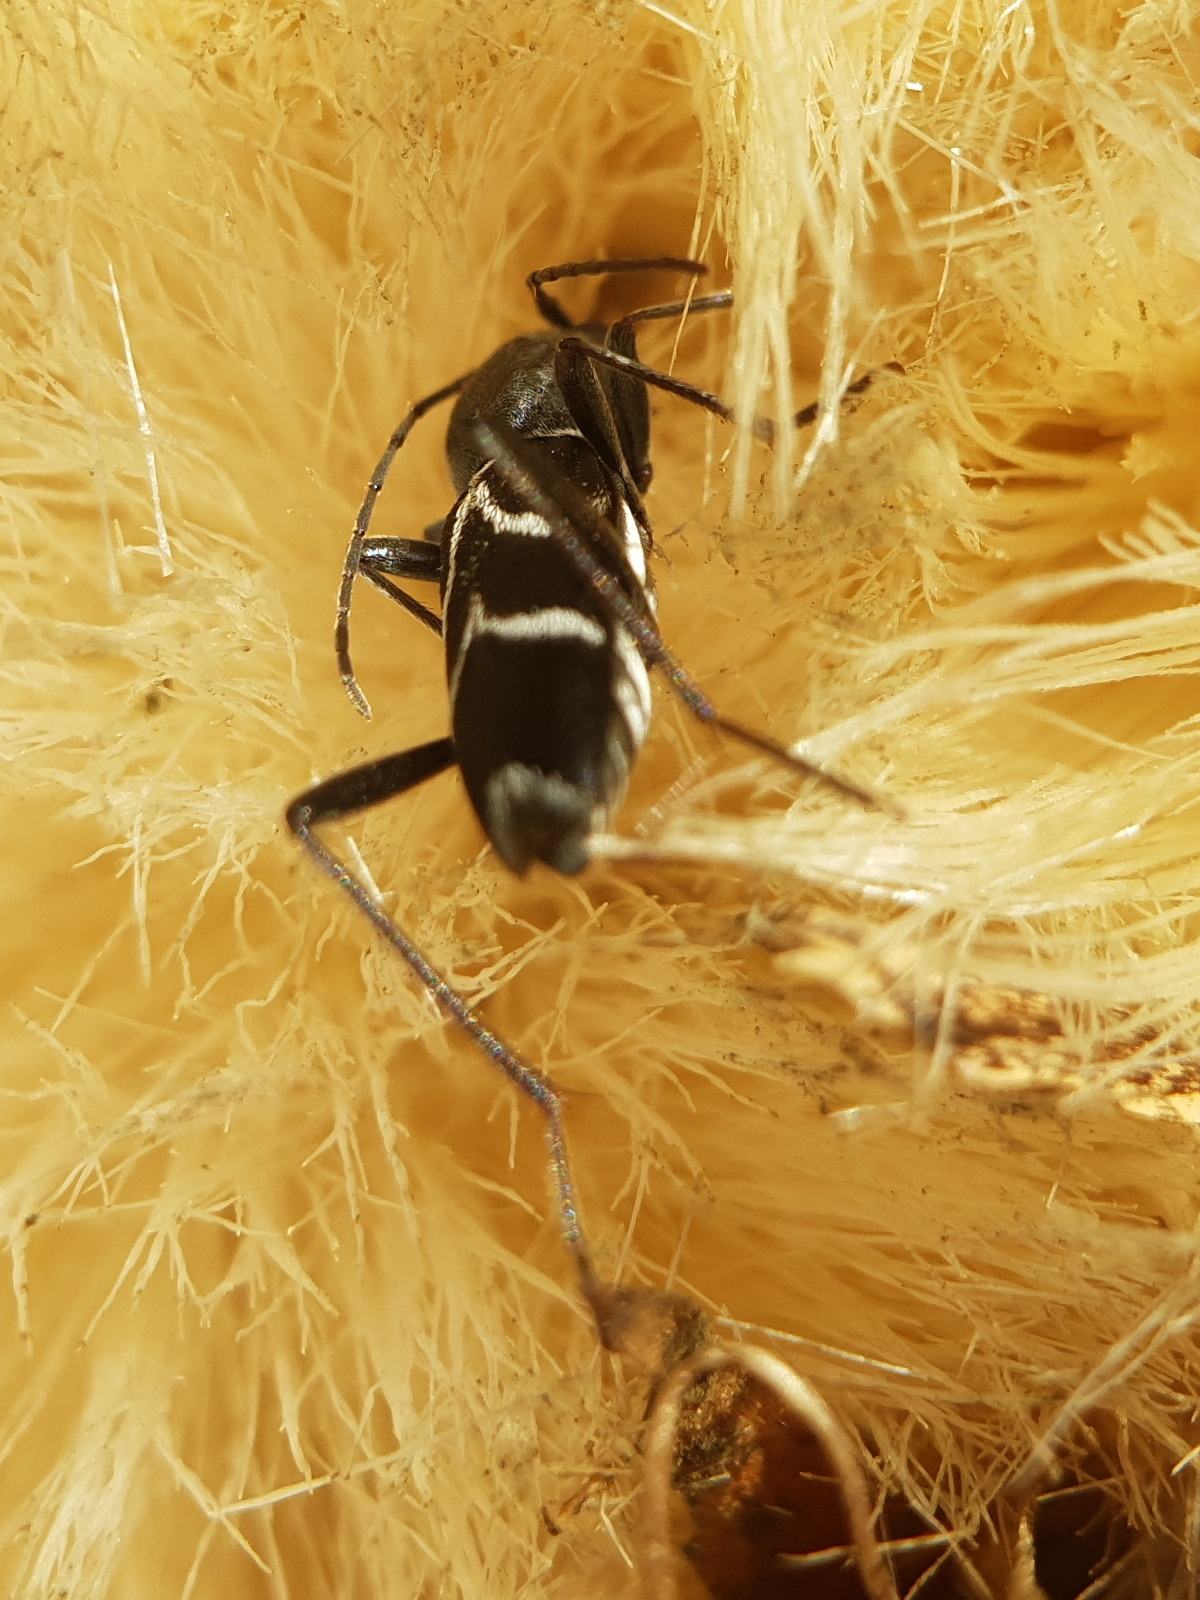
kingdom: Animalia
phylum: Arthropoda
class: Insecta
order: Coleoptera
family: Cerambycidae
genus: Chlorophorus
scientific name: Chlorophorus sartor
